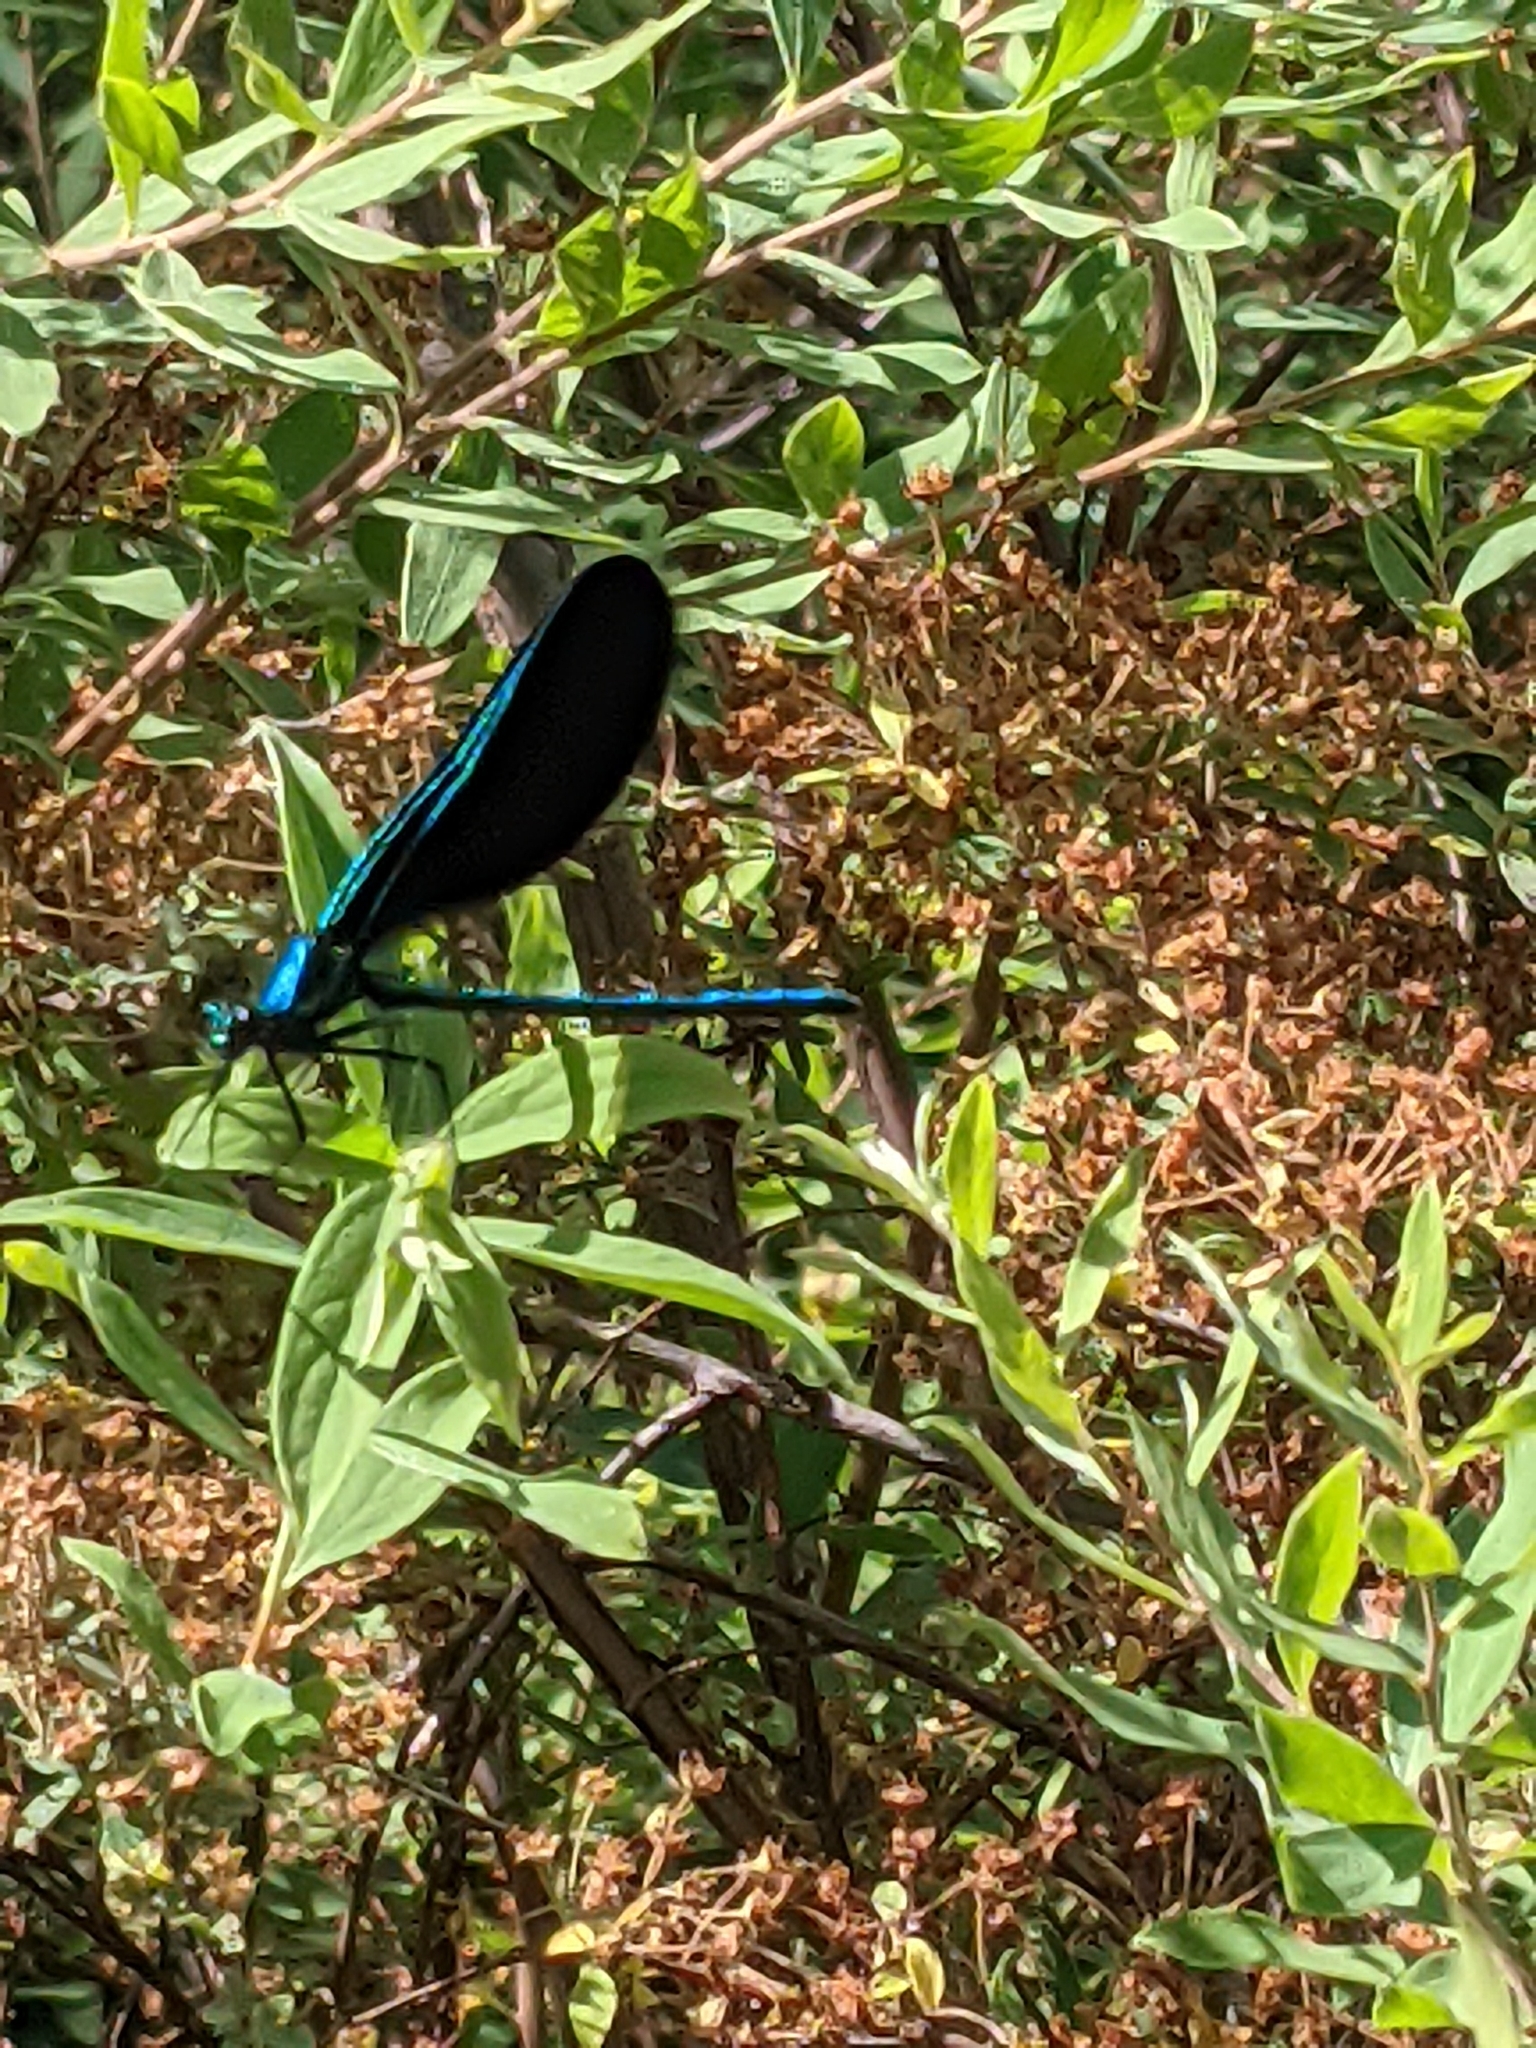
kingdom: Animalia
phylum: Arthropoda
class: Insecta
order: Odonata
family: Calopterygidae
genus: Calopteryx
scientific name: Calopteryx maculata
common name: Ebony jewelwing
